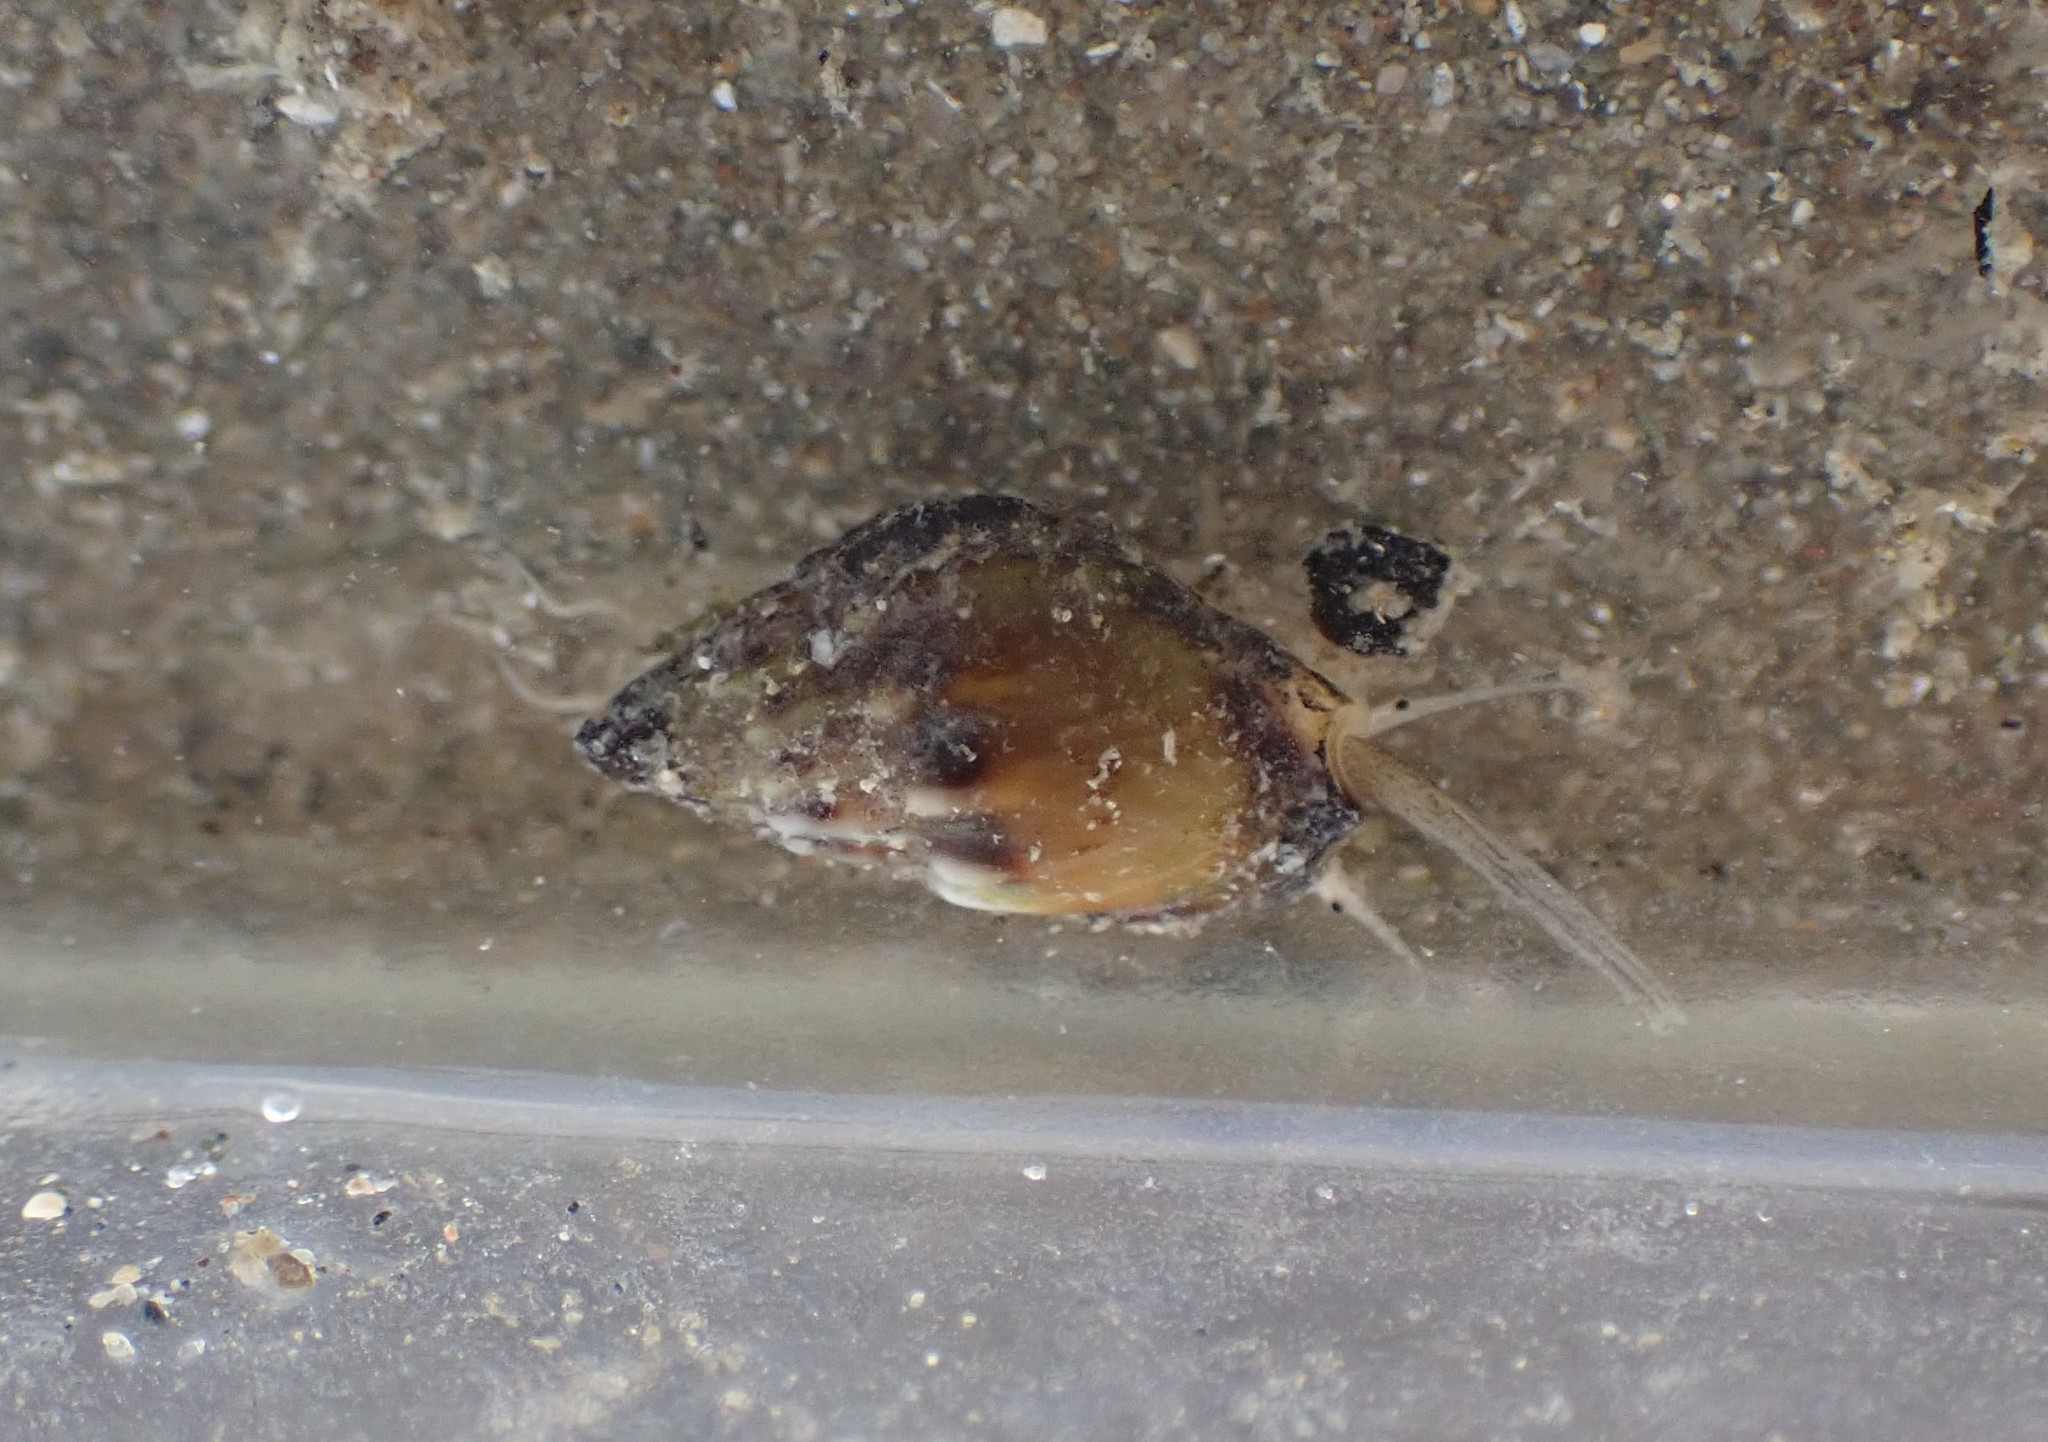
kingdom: Animalia
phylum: Mollusca
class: Gastropoda
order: Neogastropoda
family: Nassariidae
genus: Tritia
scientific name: Tritia burchardi
